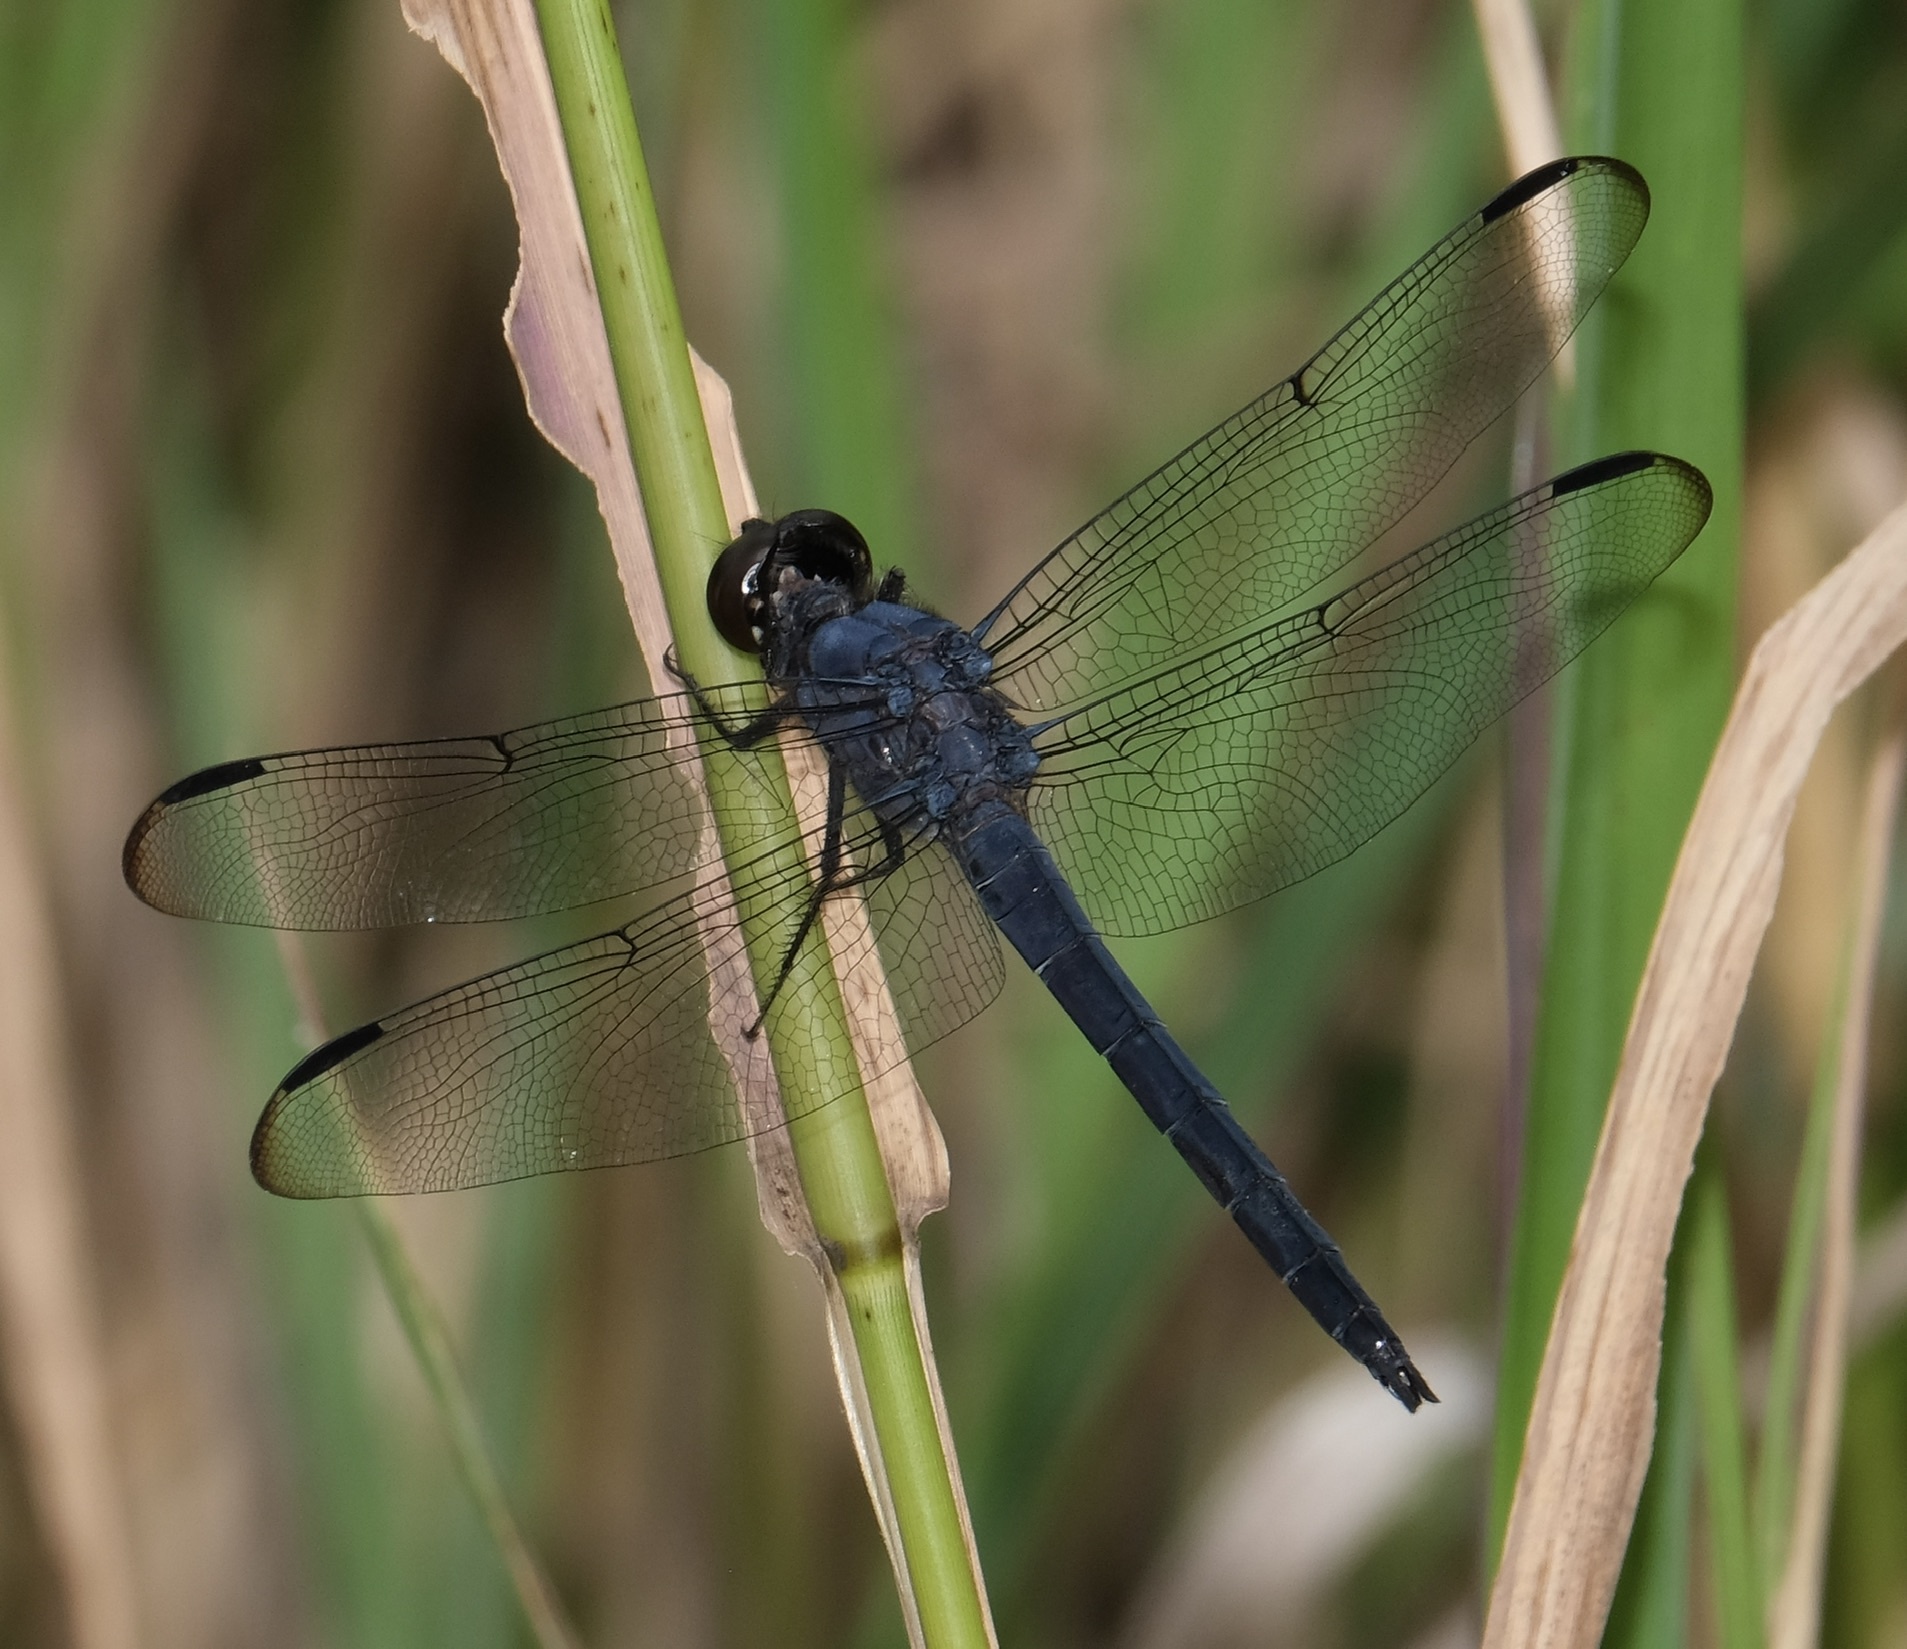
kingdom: Animalia
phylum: Arthropoda
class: Insecta
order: Odonata
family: Libellulidae
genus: Libellula
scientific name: Libellula incesta
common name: Slaty skimmer
